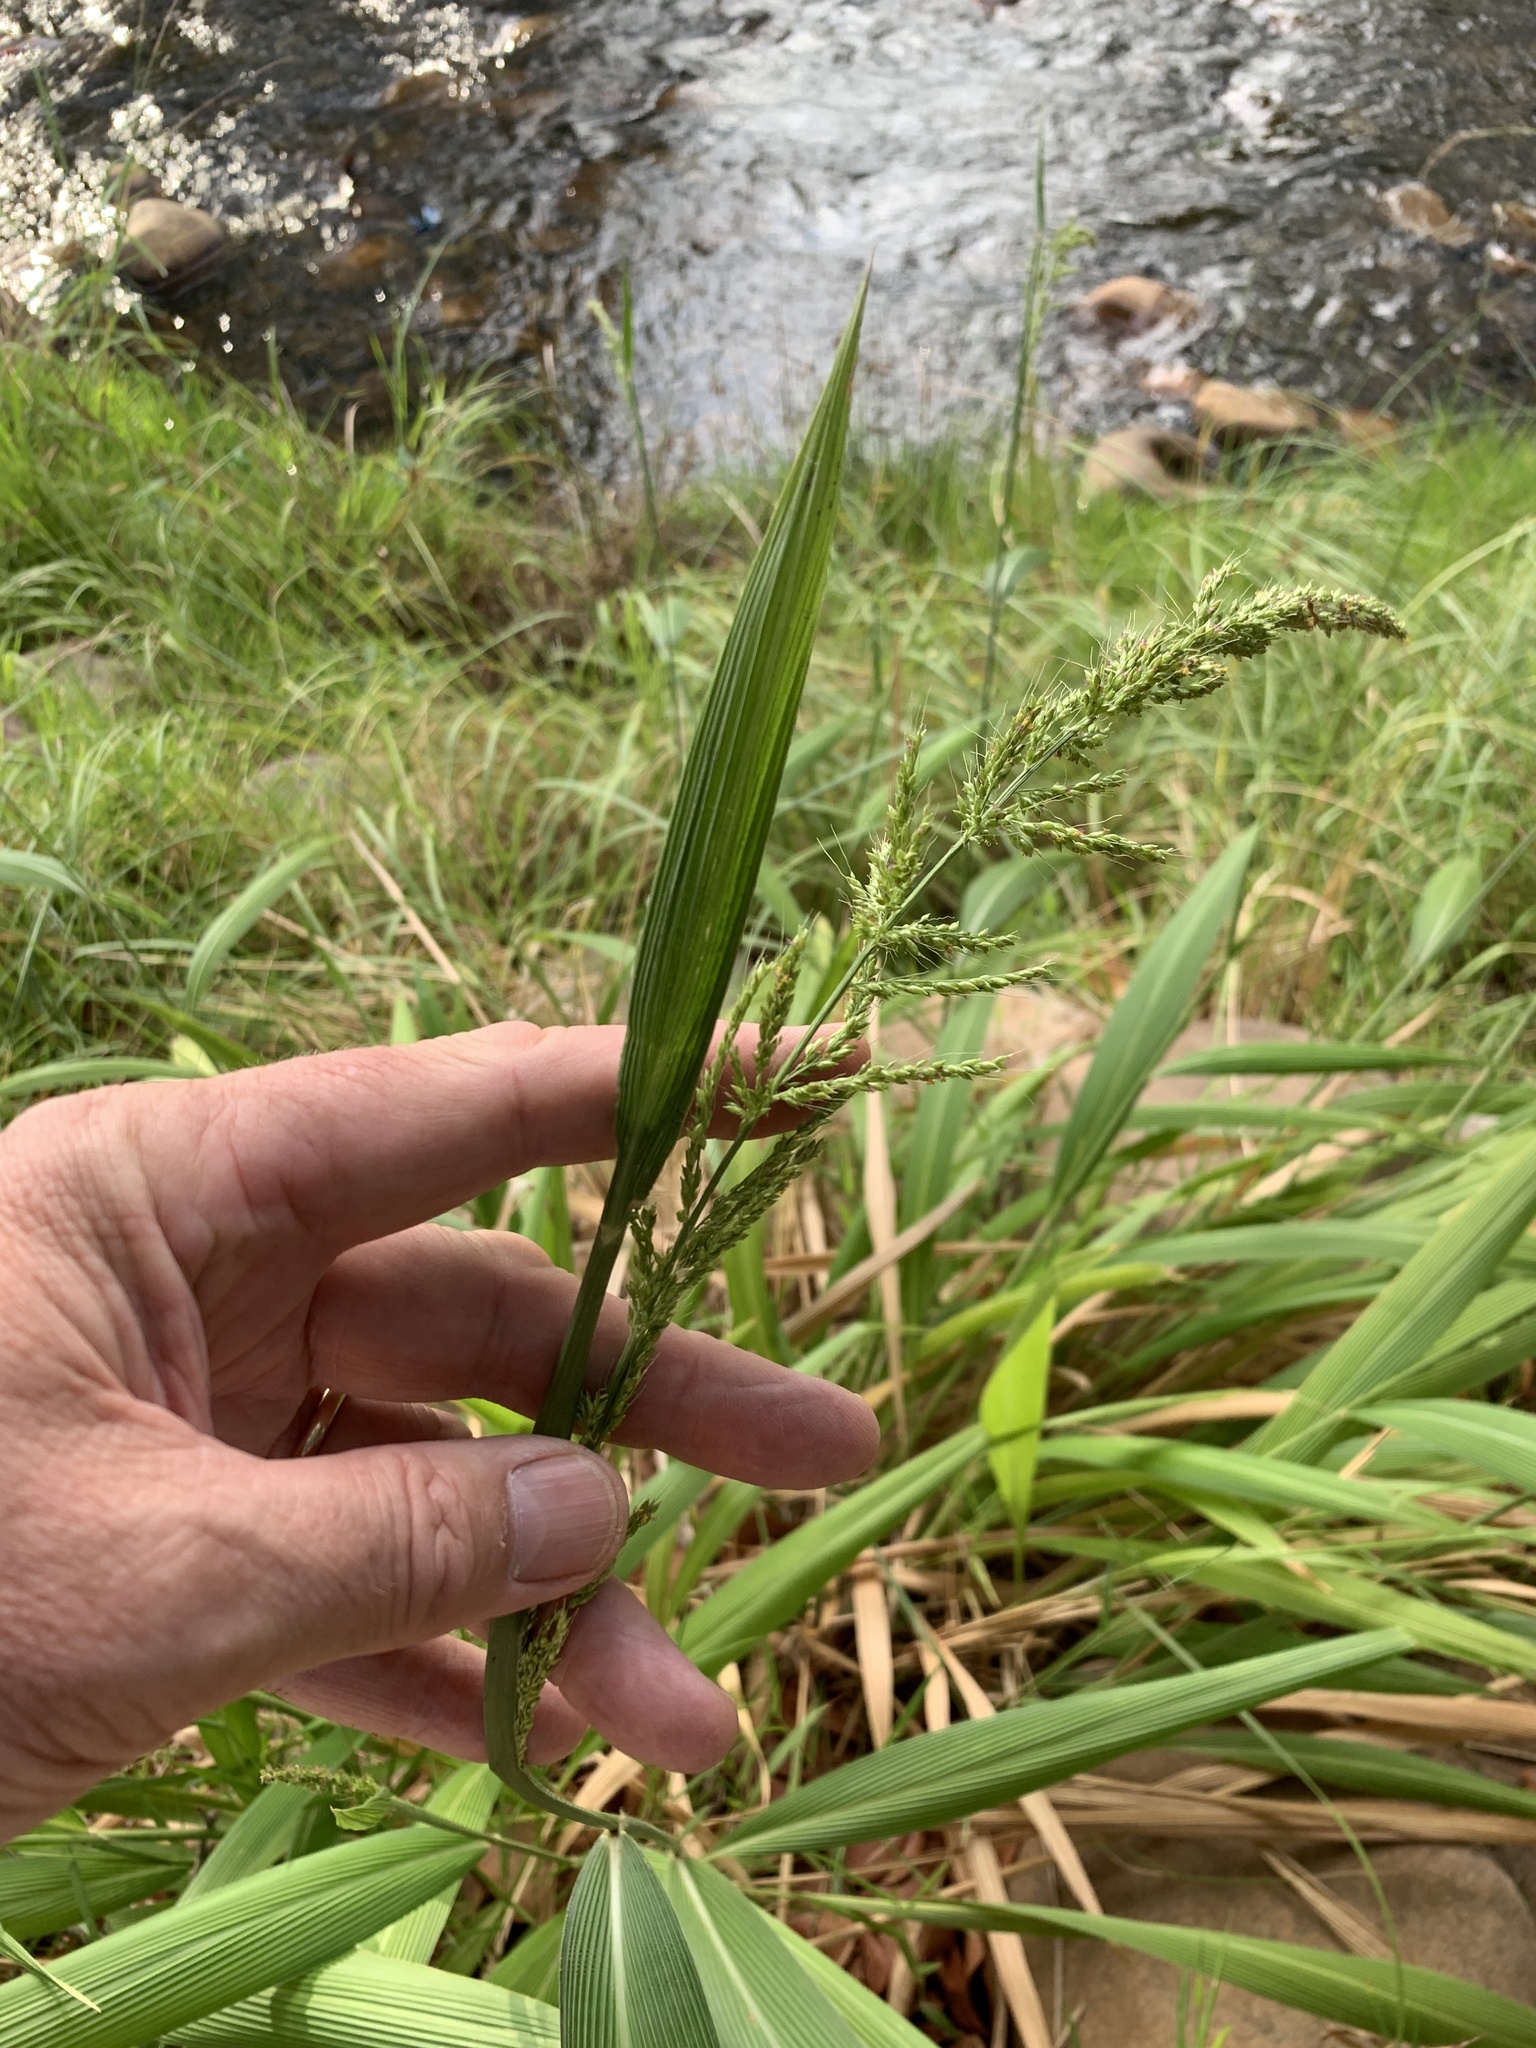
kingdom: Plantae
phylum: Tracheophyta
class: Liliopsida
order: Poales
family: Poaceae
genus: Setaria
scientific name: Setaria megaphylla
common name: Bigleaf bristlegrass
